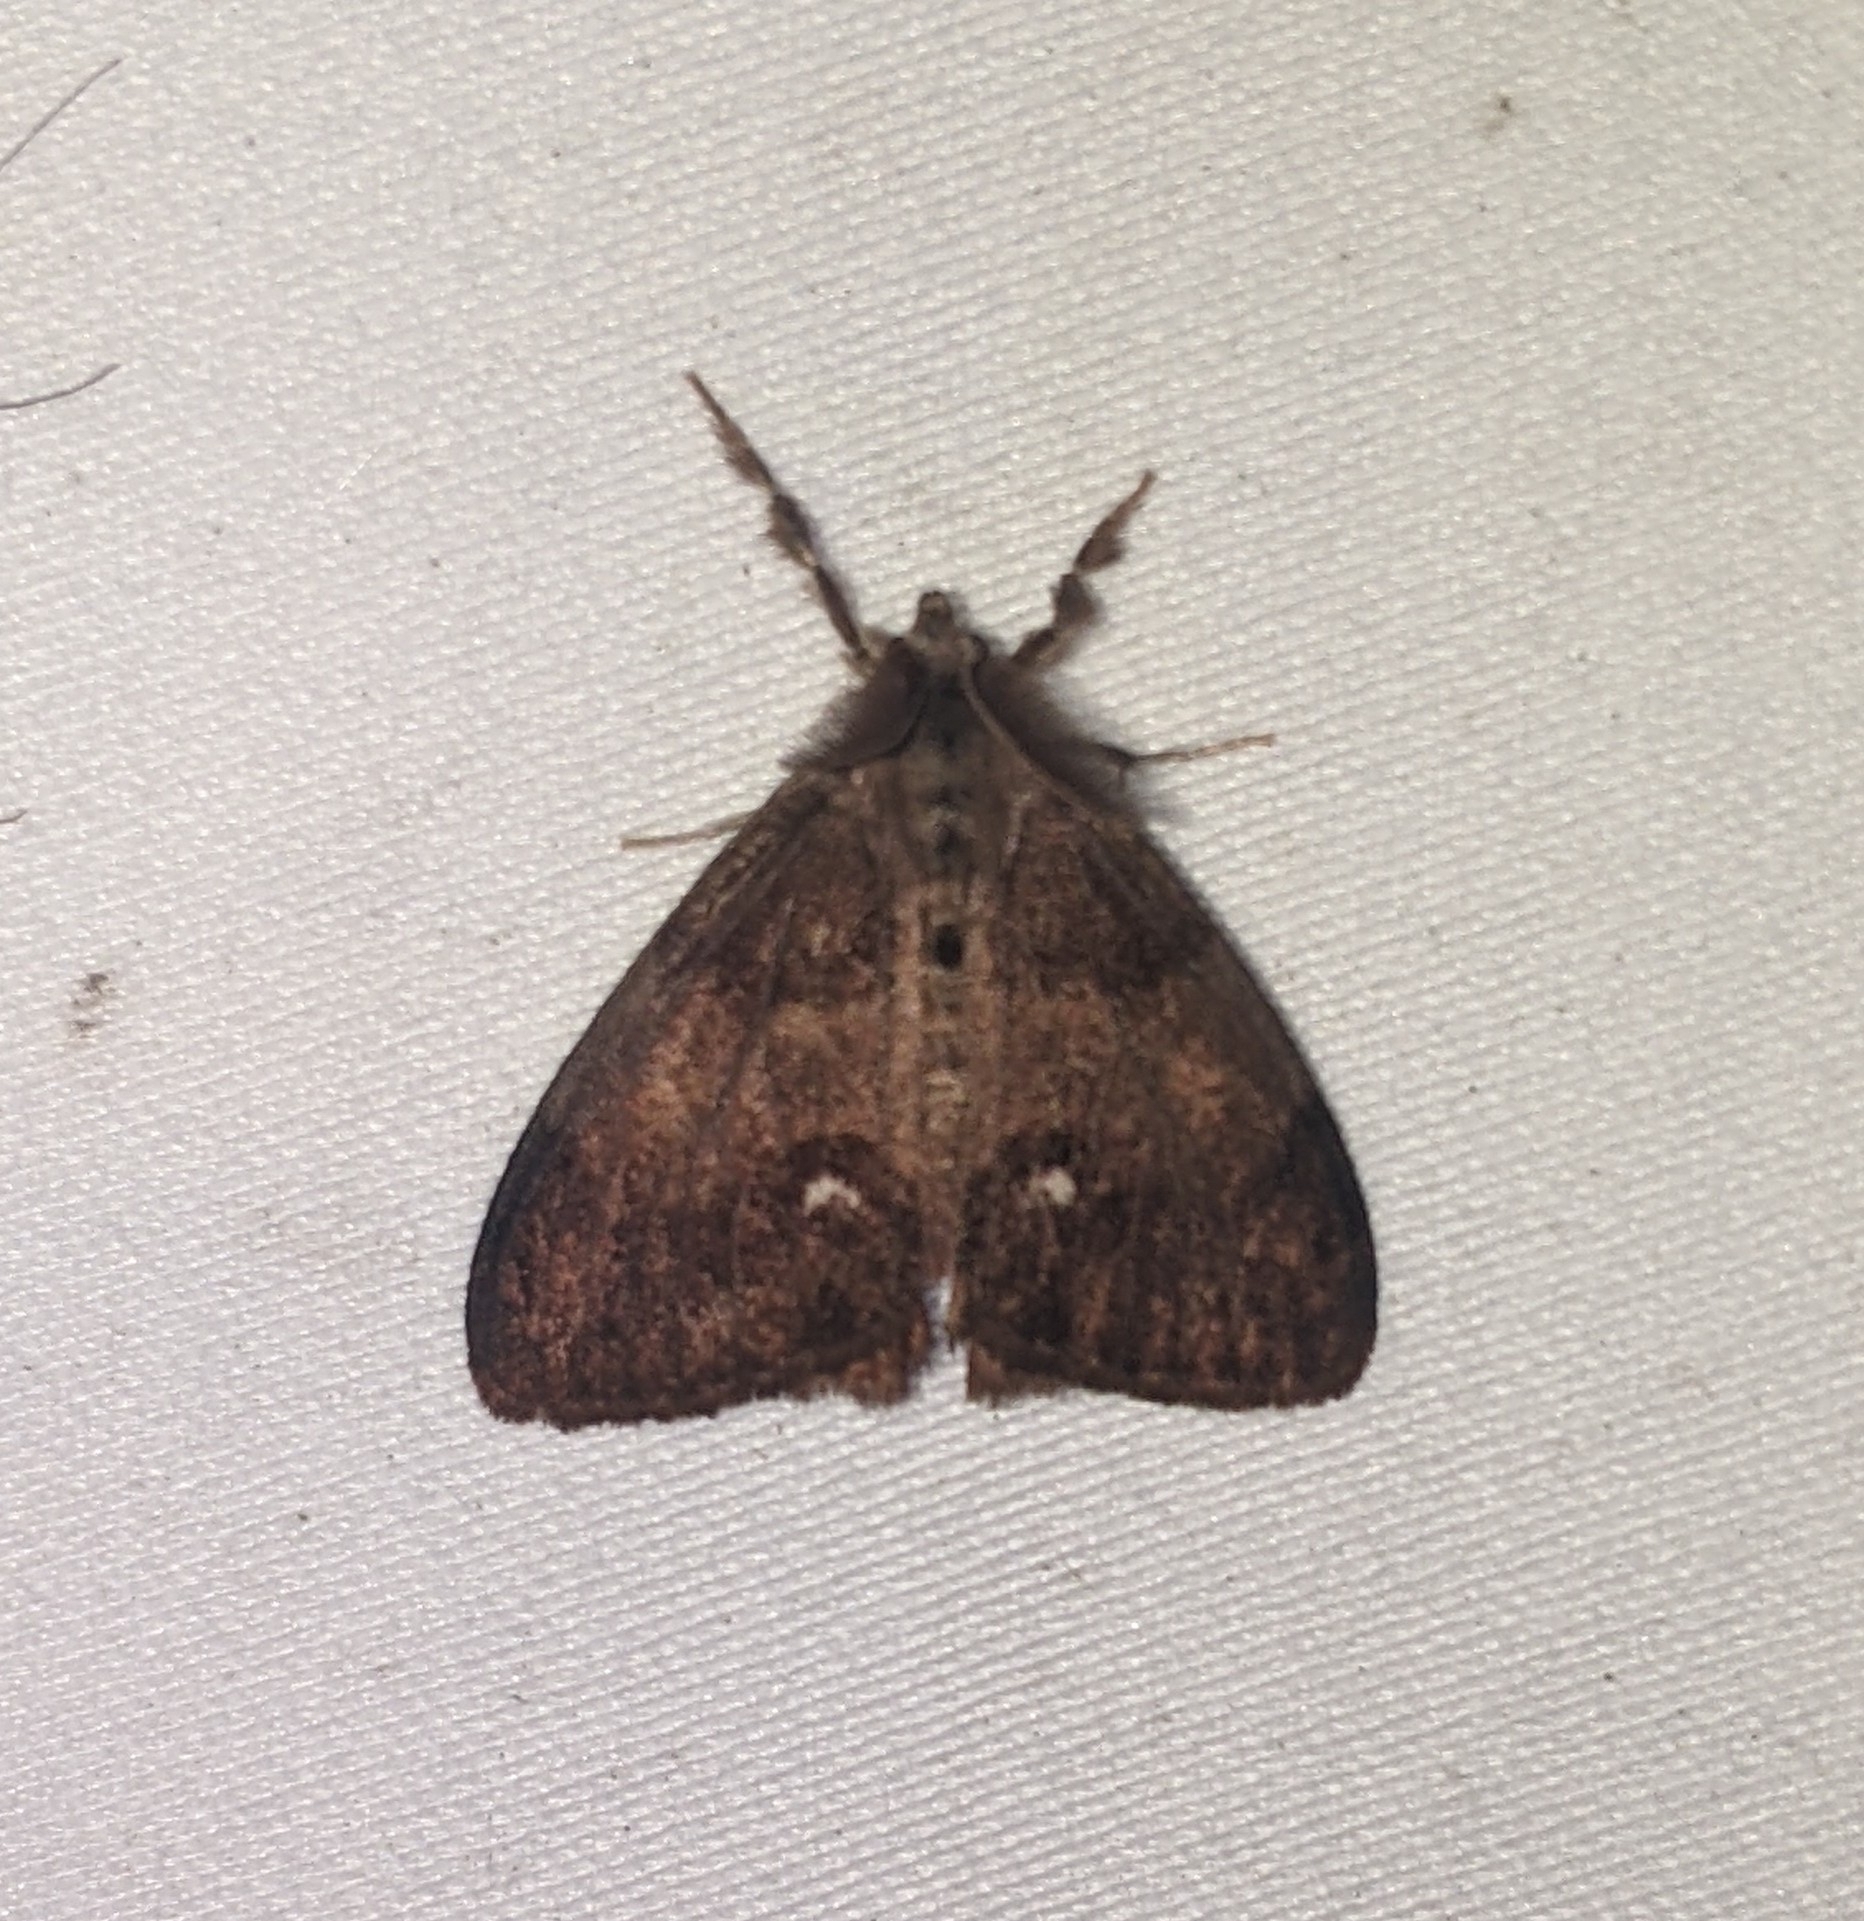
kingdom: Animalia
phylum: Arthropoda
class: Insecta
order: Lepidoptera
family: Erebidae
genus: Orgyia
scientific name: Orgyia antiqua
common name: Vapourer
